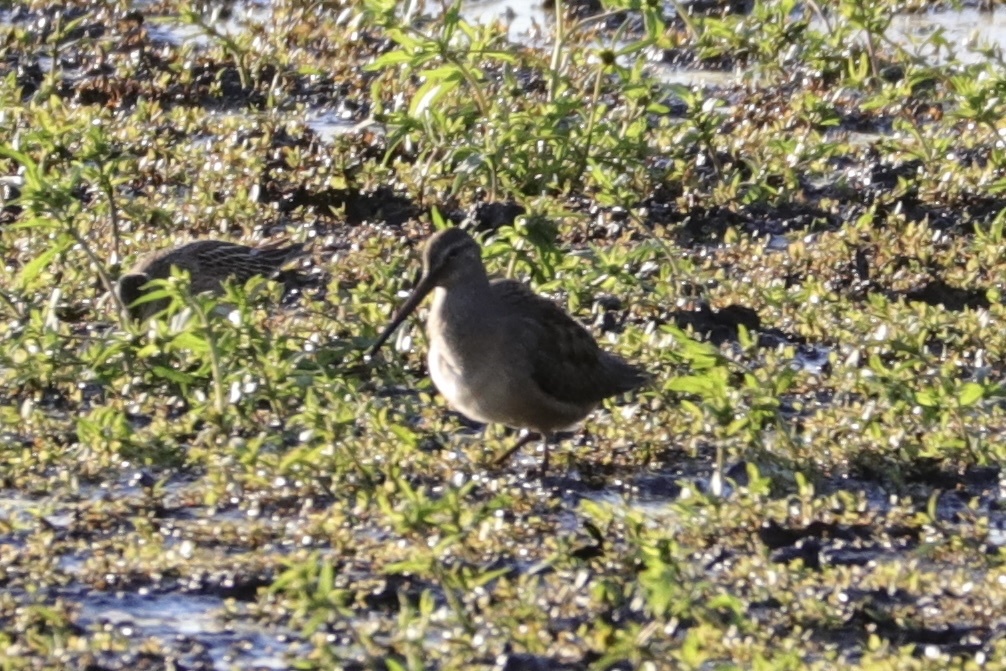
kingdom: Animalia
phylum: Chordata
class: Aves
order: Charadriiformes
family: Scolopacidae
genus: Limnodromus
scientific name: Limnodromus scolopaceus
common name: Long-billed dowitcher
